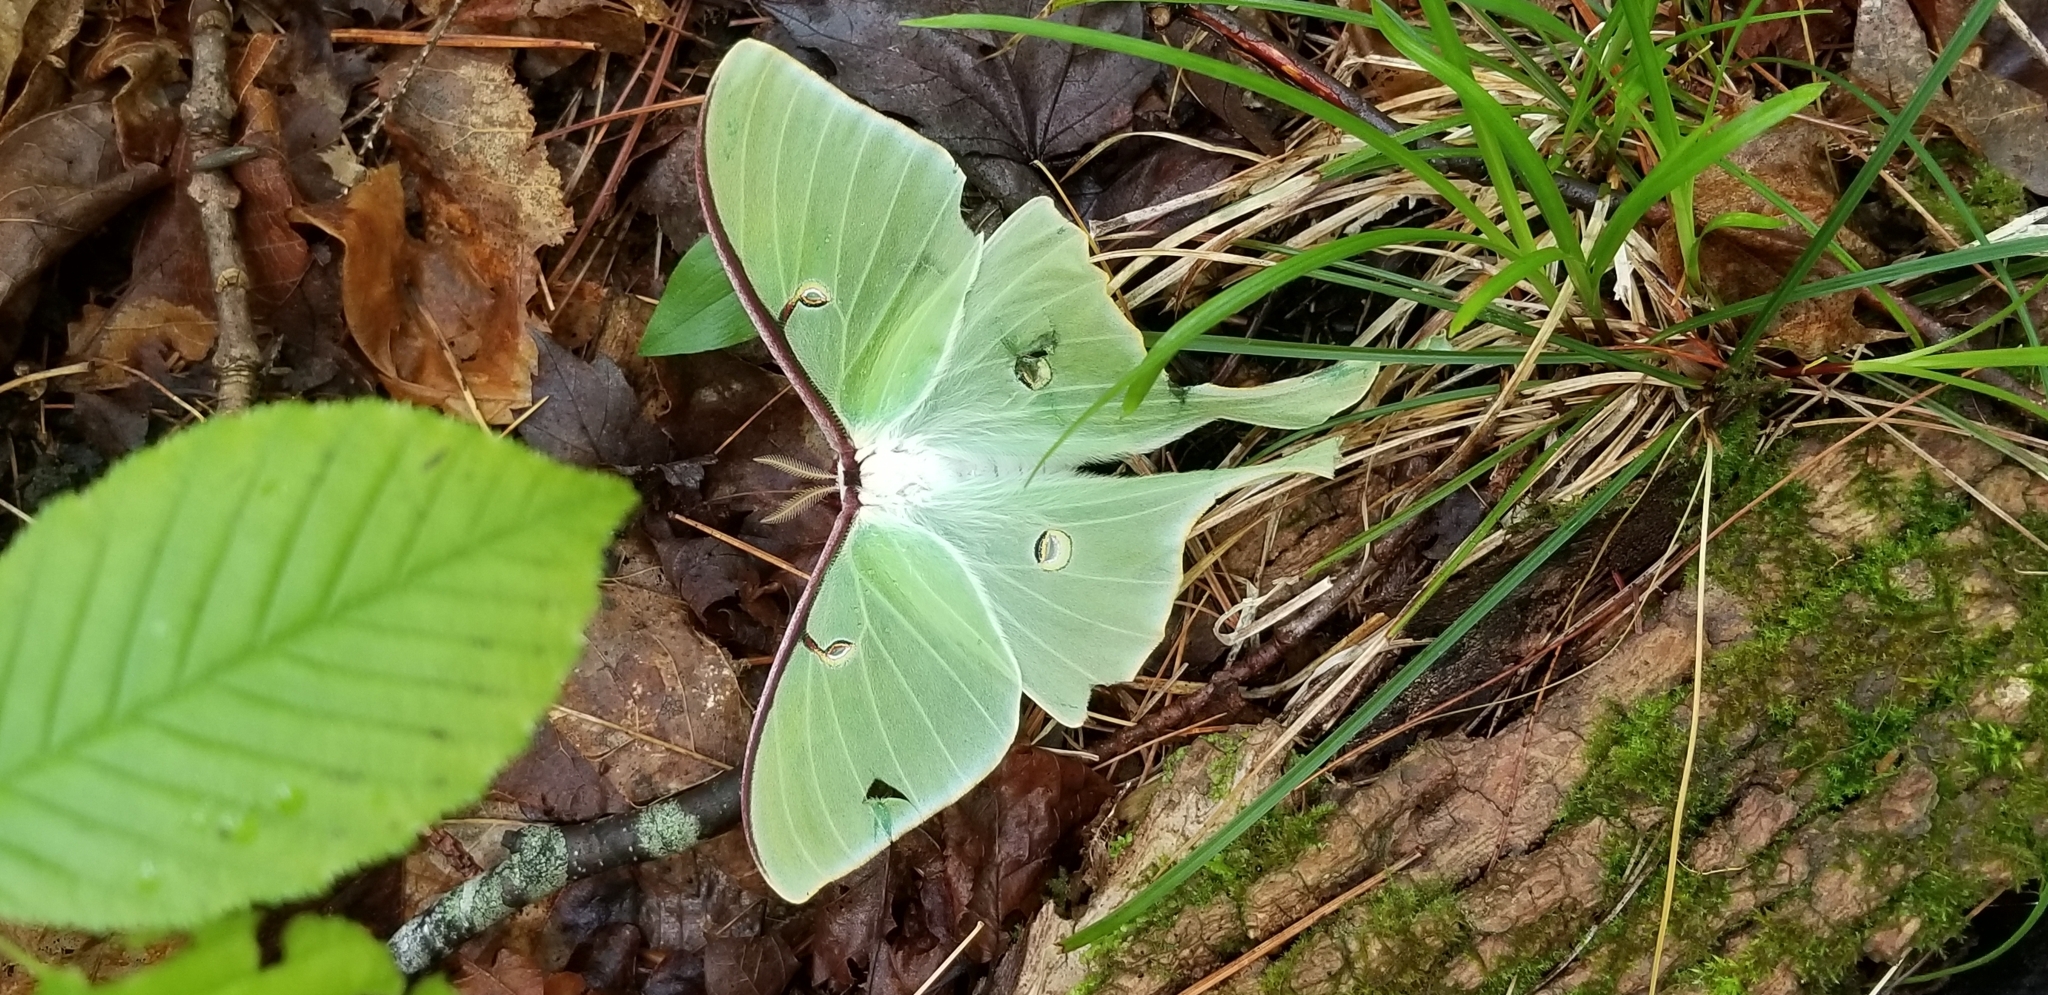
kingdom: Animalia
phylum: Arthropoda
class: Insecta
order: Lepidoptera
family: Saturniidae
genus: Actias
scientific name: Actias luna
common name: Luna moth
